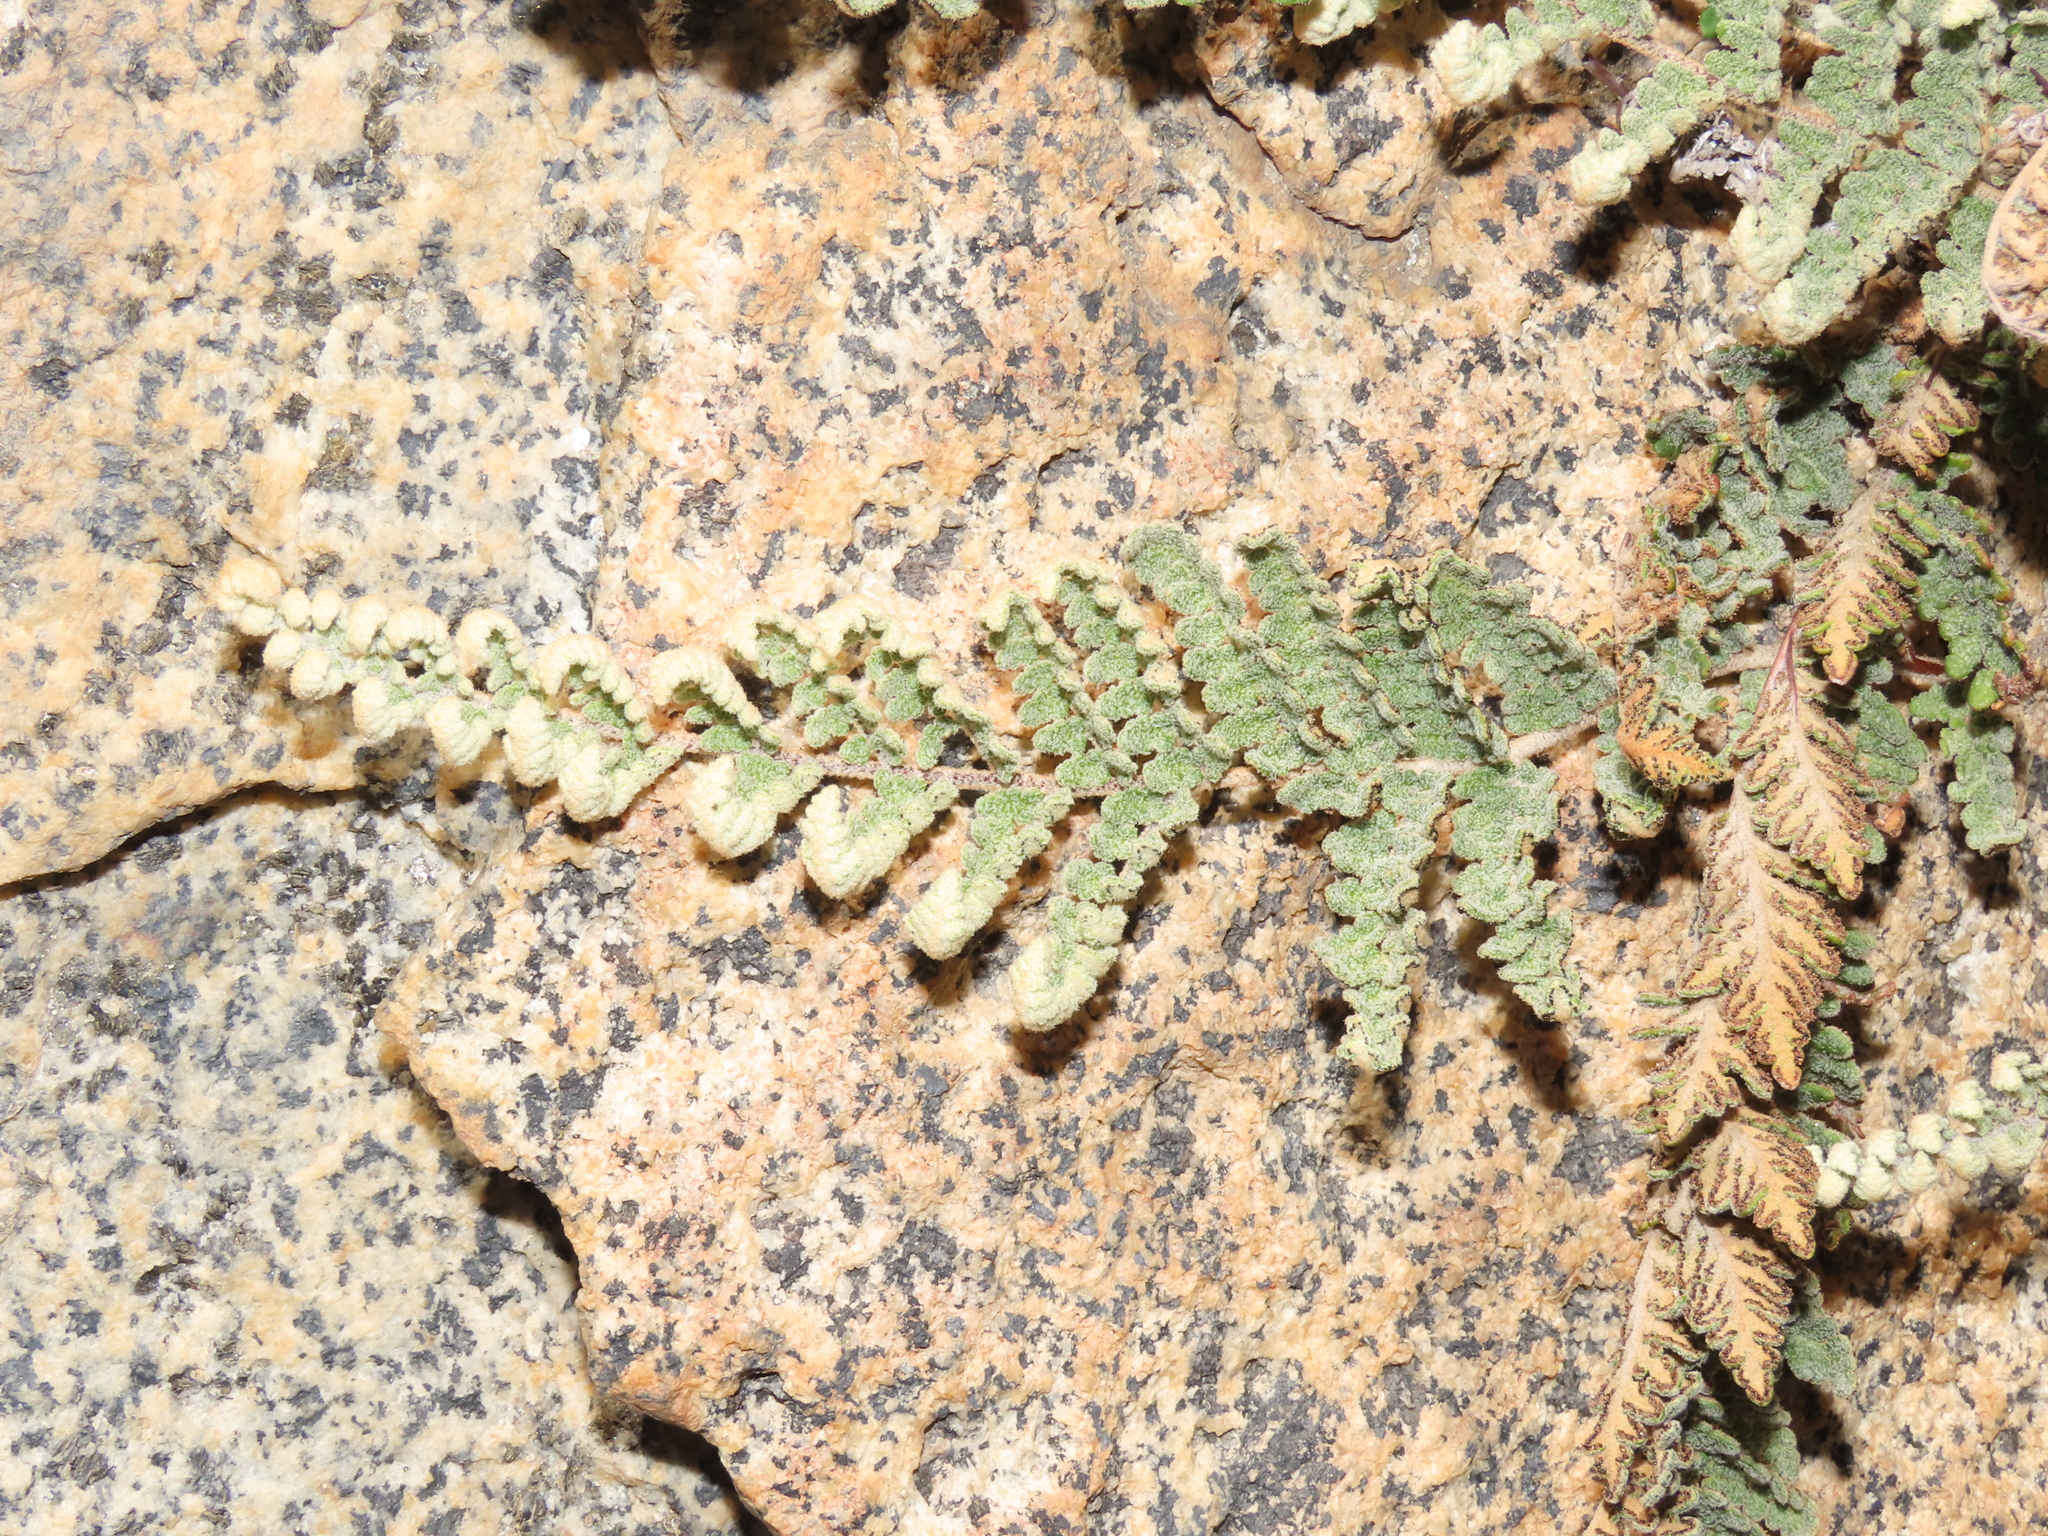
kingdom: Plantae
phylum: Tracheophyta
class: Polypodiopsida
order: Polypodiales
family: Pteridaceae
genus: Cheilanthes
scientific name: Cheilanthes mollis
